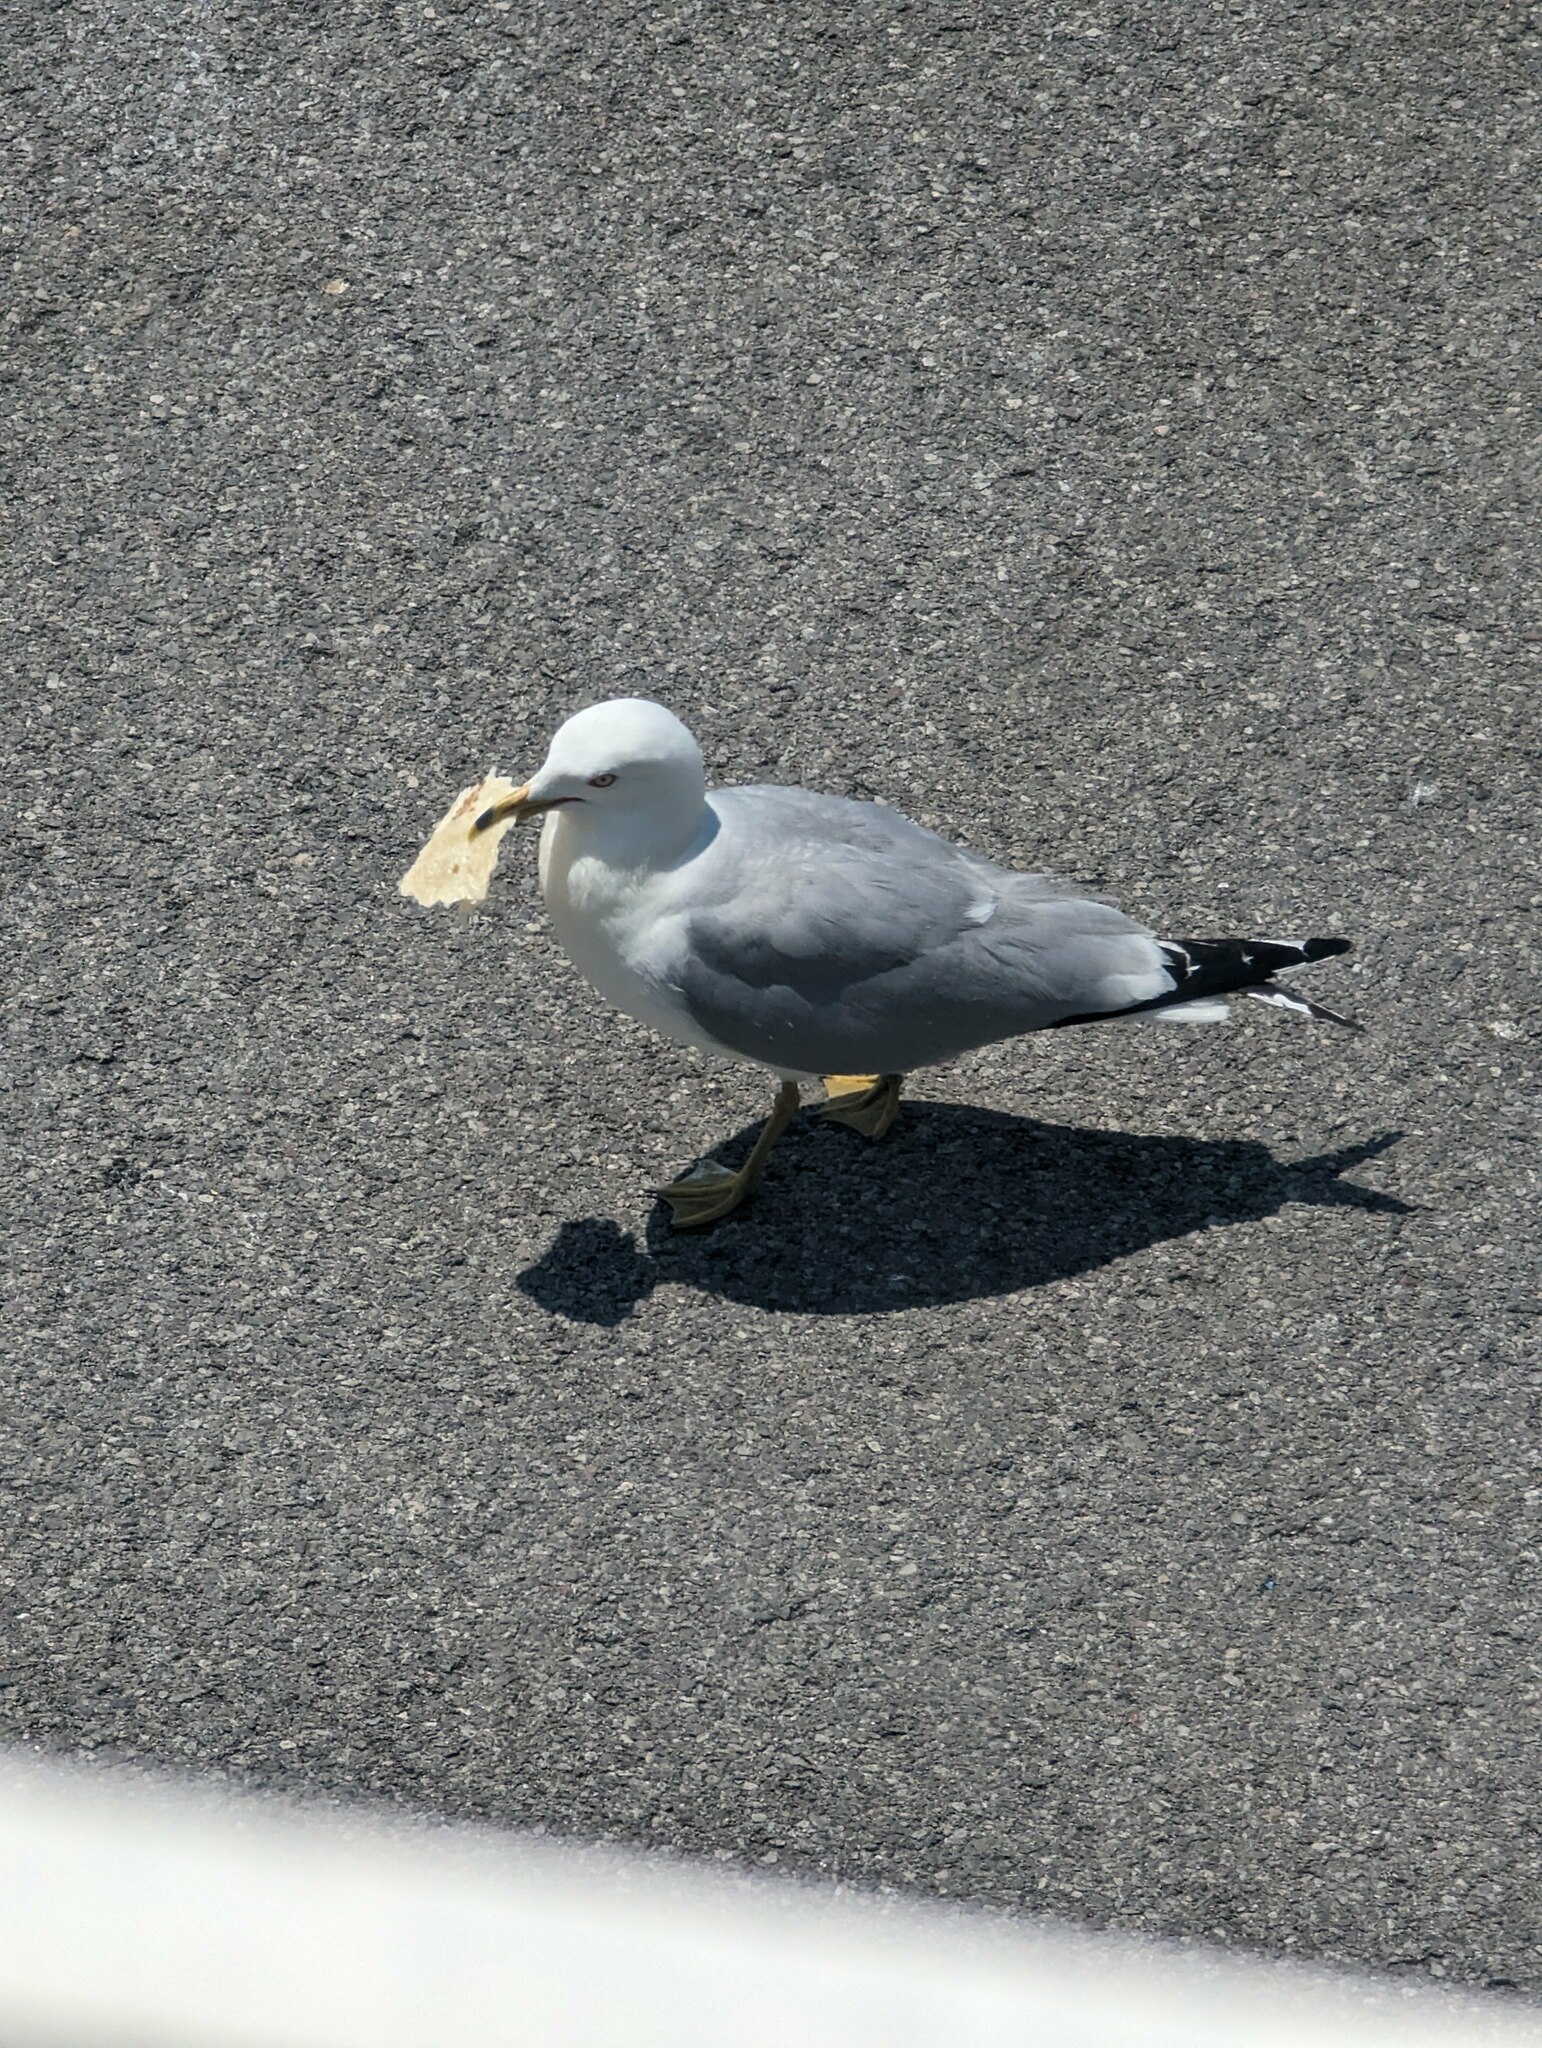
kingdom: Animalia
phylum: Chordata
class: Aves
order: Charadriiformes
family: Laridae
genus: Larus
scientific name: Larus delawarensis
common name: Ring-billed gull
